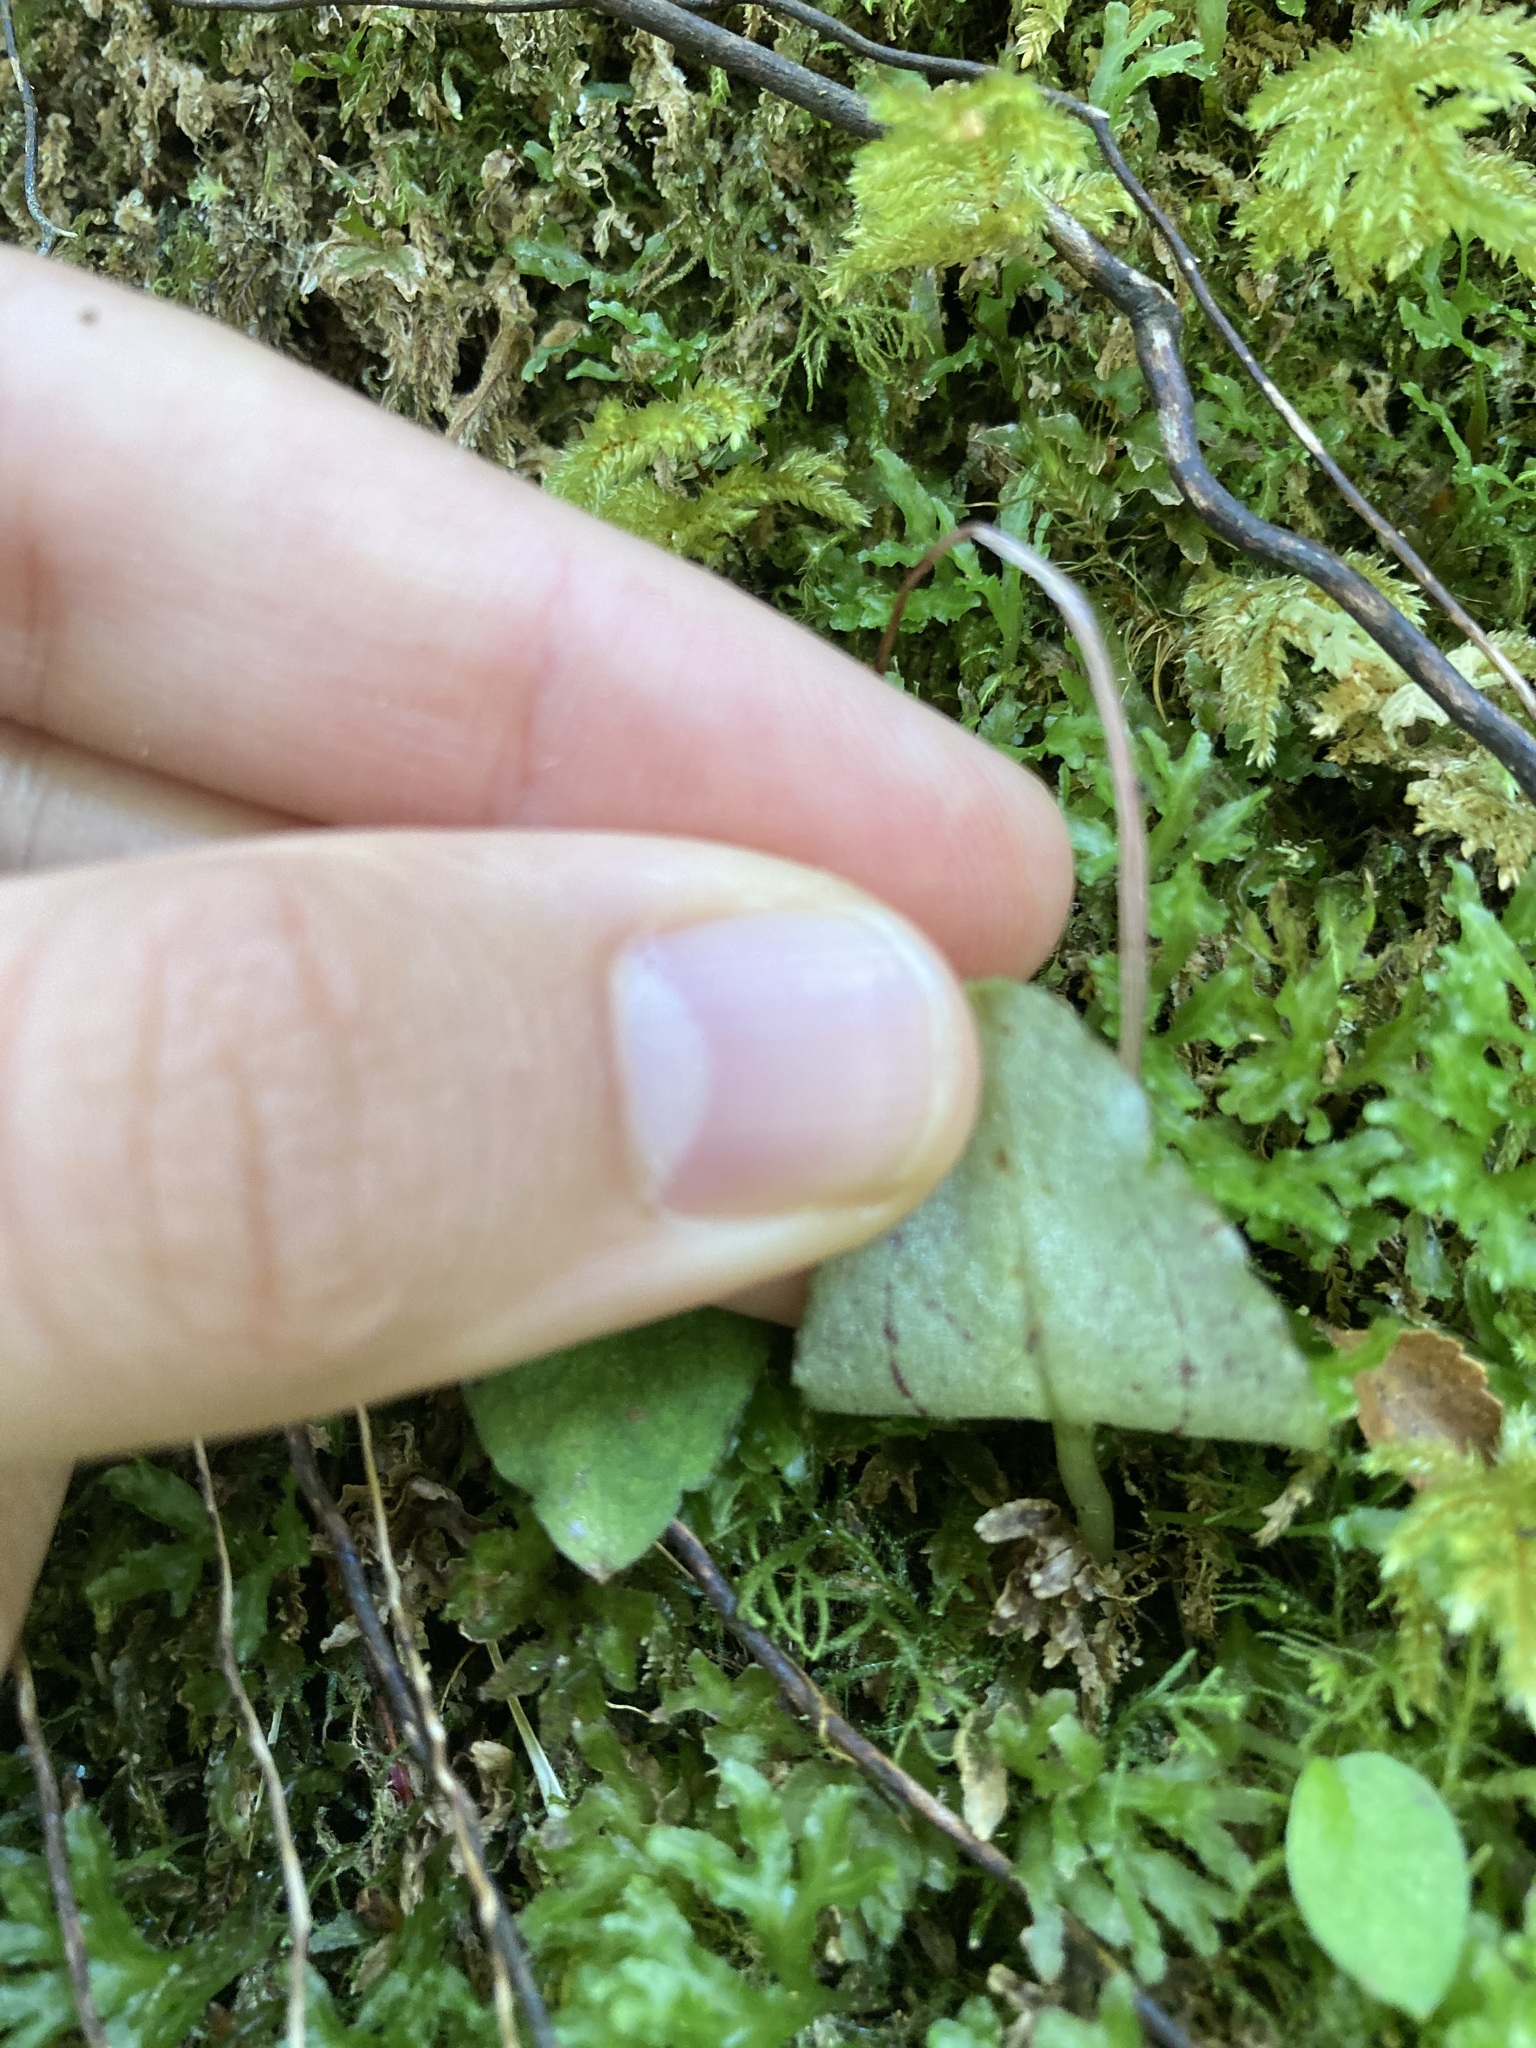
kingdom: Plantae
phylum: Tracheophyta
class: Liliopsida
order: Asparagales
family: Orchidaceae
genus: Corybas
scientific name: Corybas oblongus
